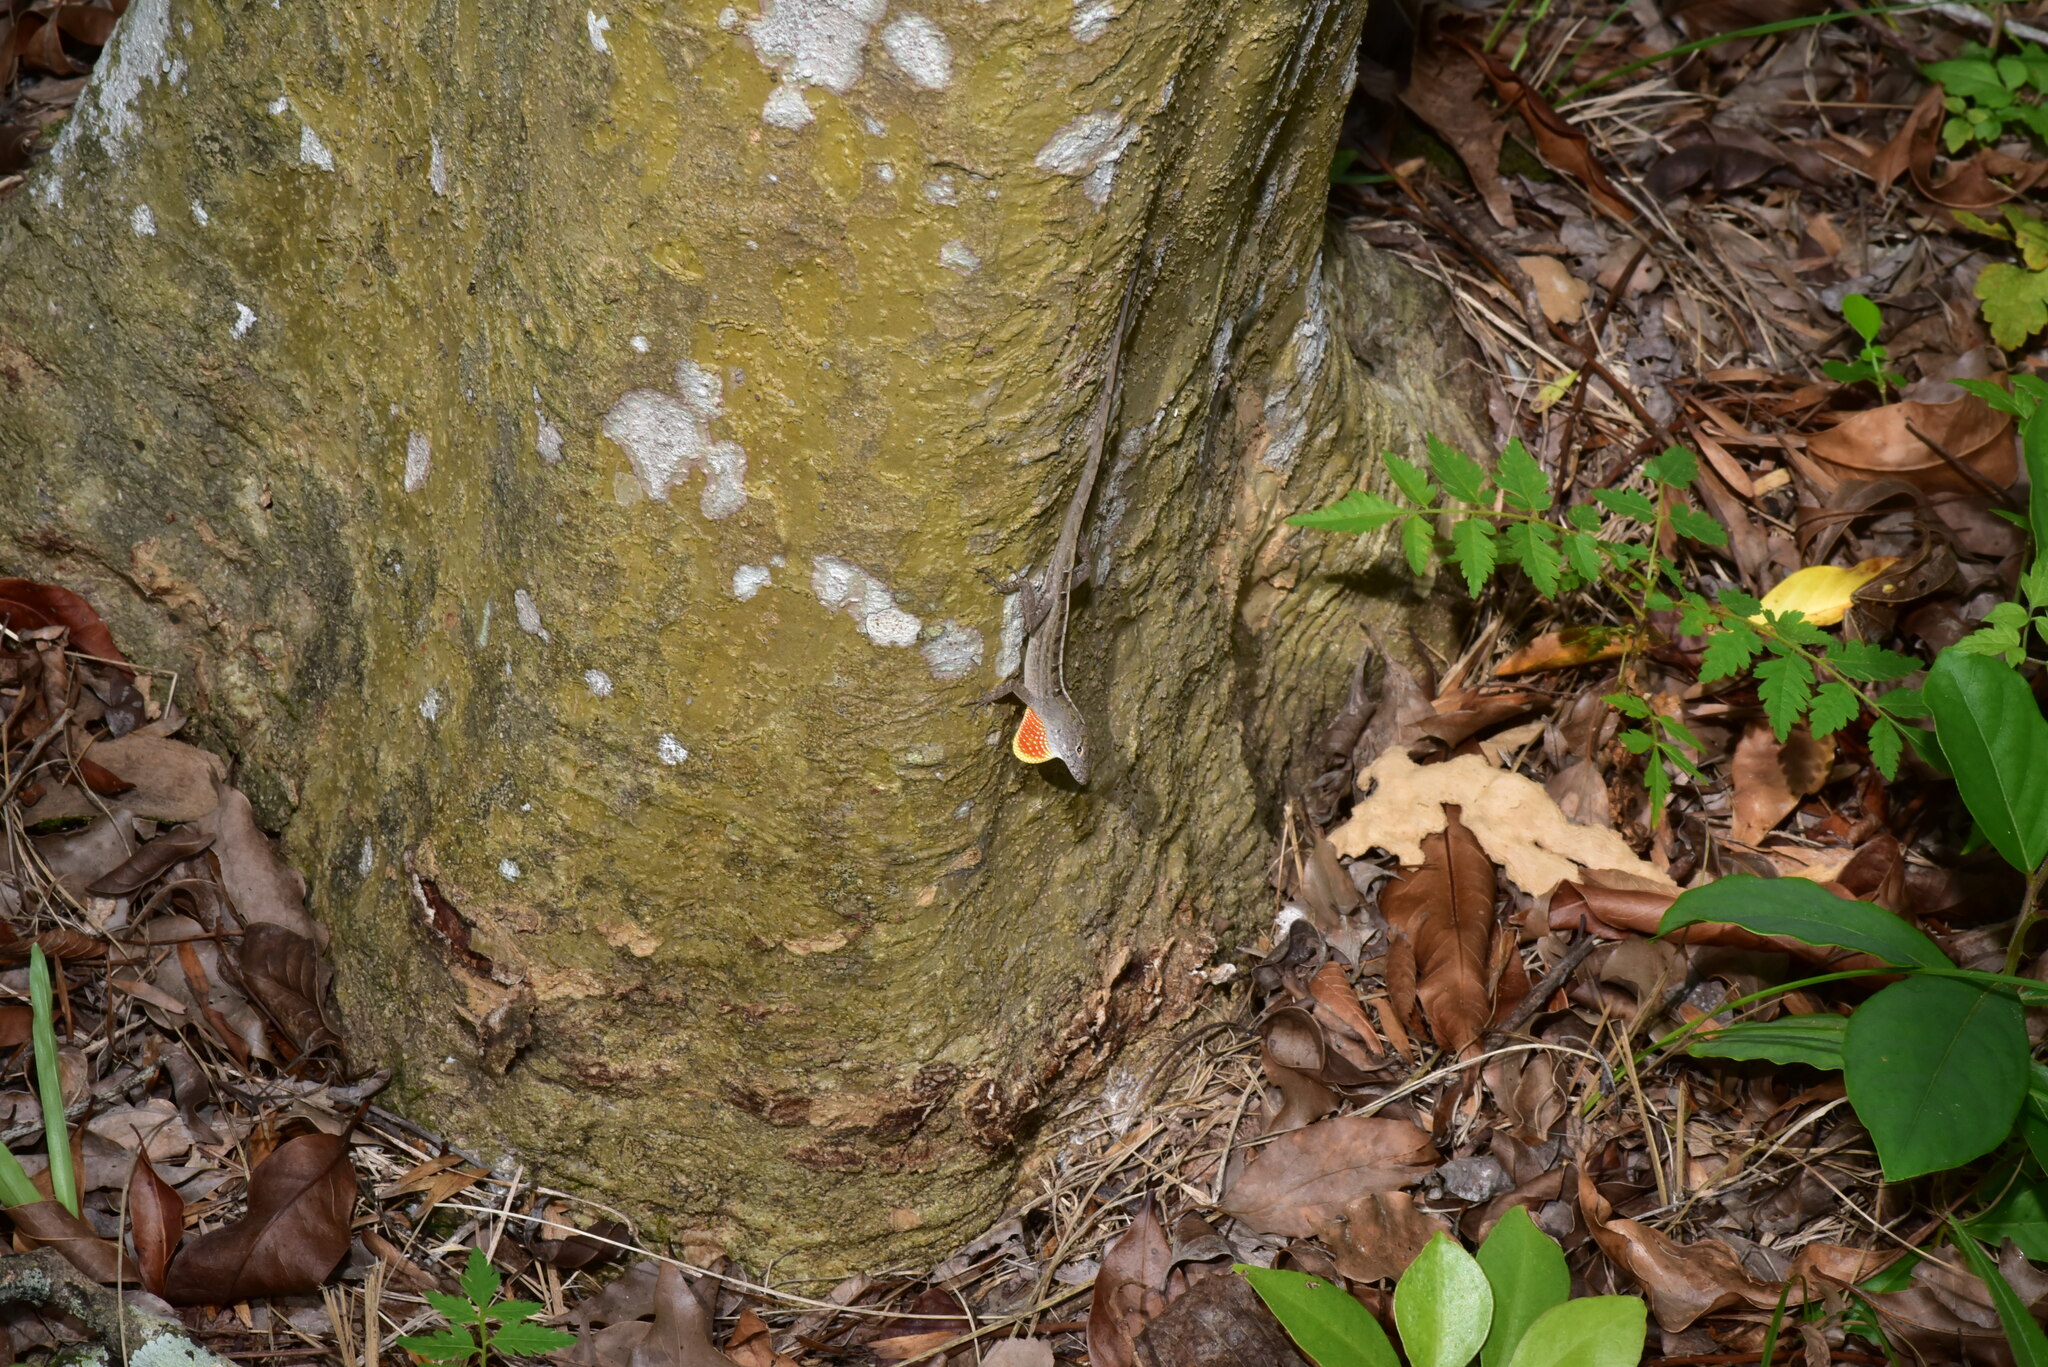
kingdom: Animalia
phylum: Chordata
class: Squamata
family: Dactyloidae
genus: Anolis
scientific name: Anolis sagrei
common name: Brown anole
